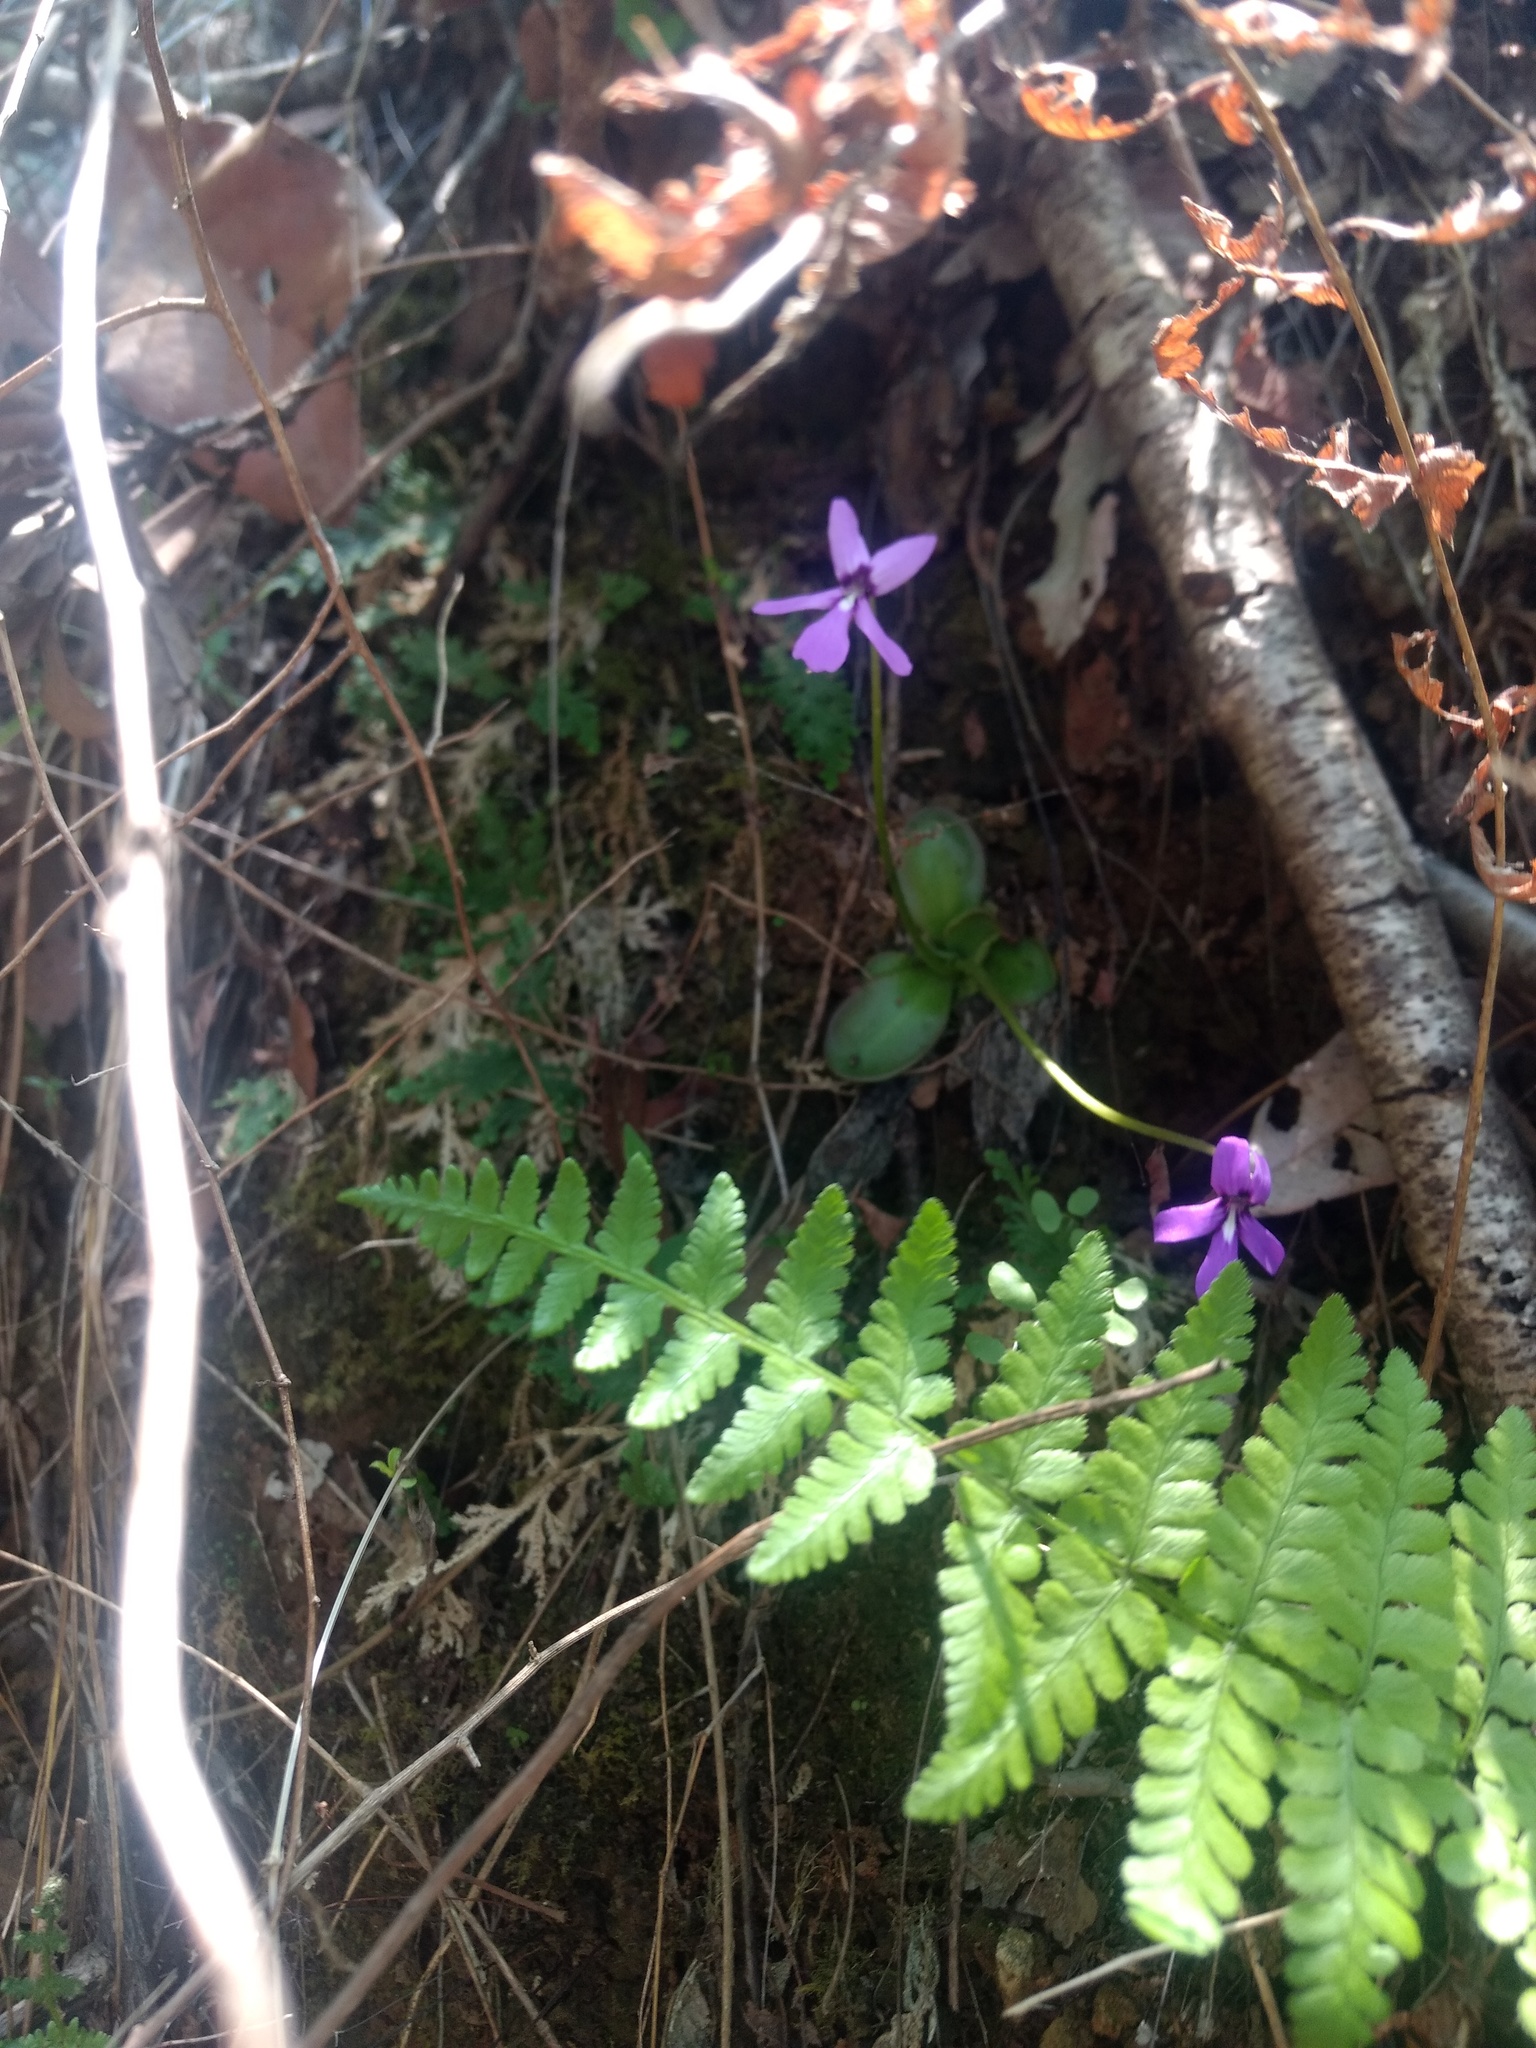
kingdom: Plantae
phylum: Tracheophyta
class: Magnoliopsida
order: Lamiales
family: Lentibulariaceae
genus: Pinguicula
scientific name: Pinguicula moranensis
